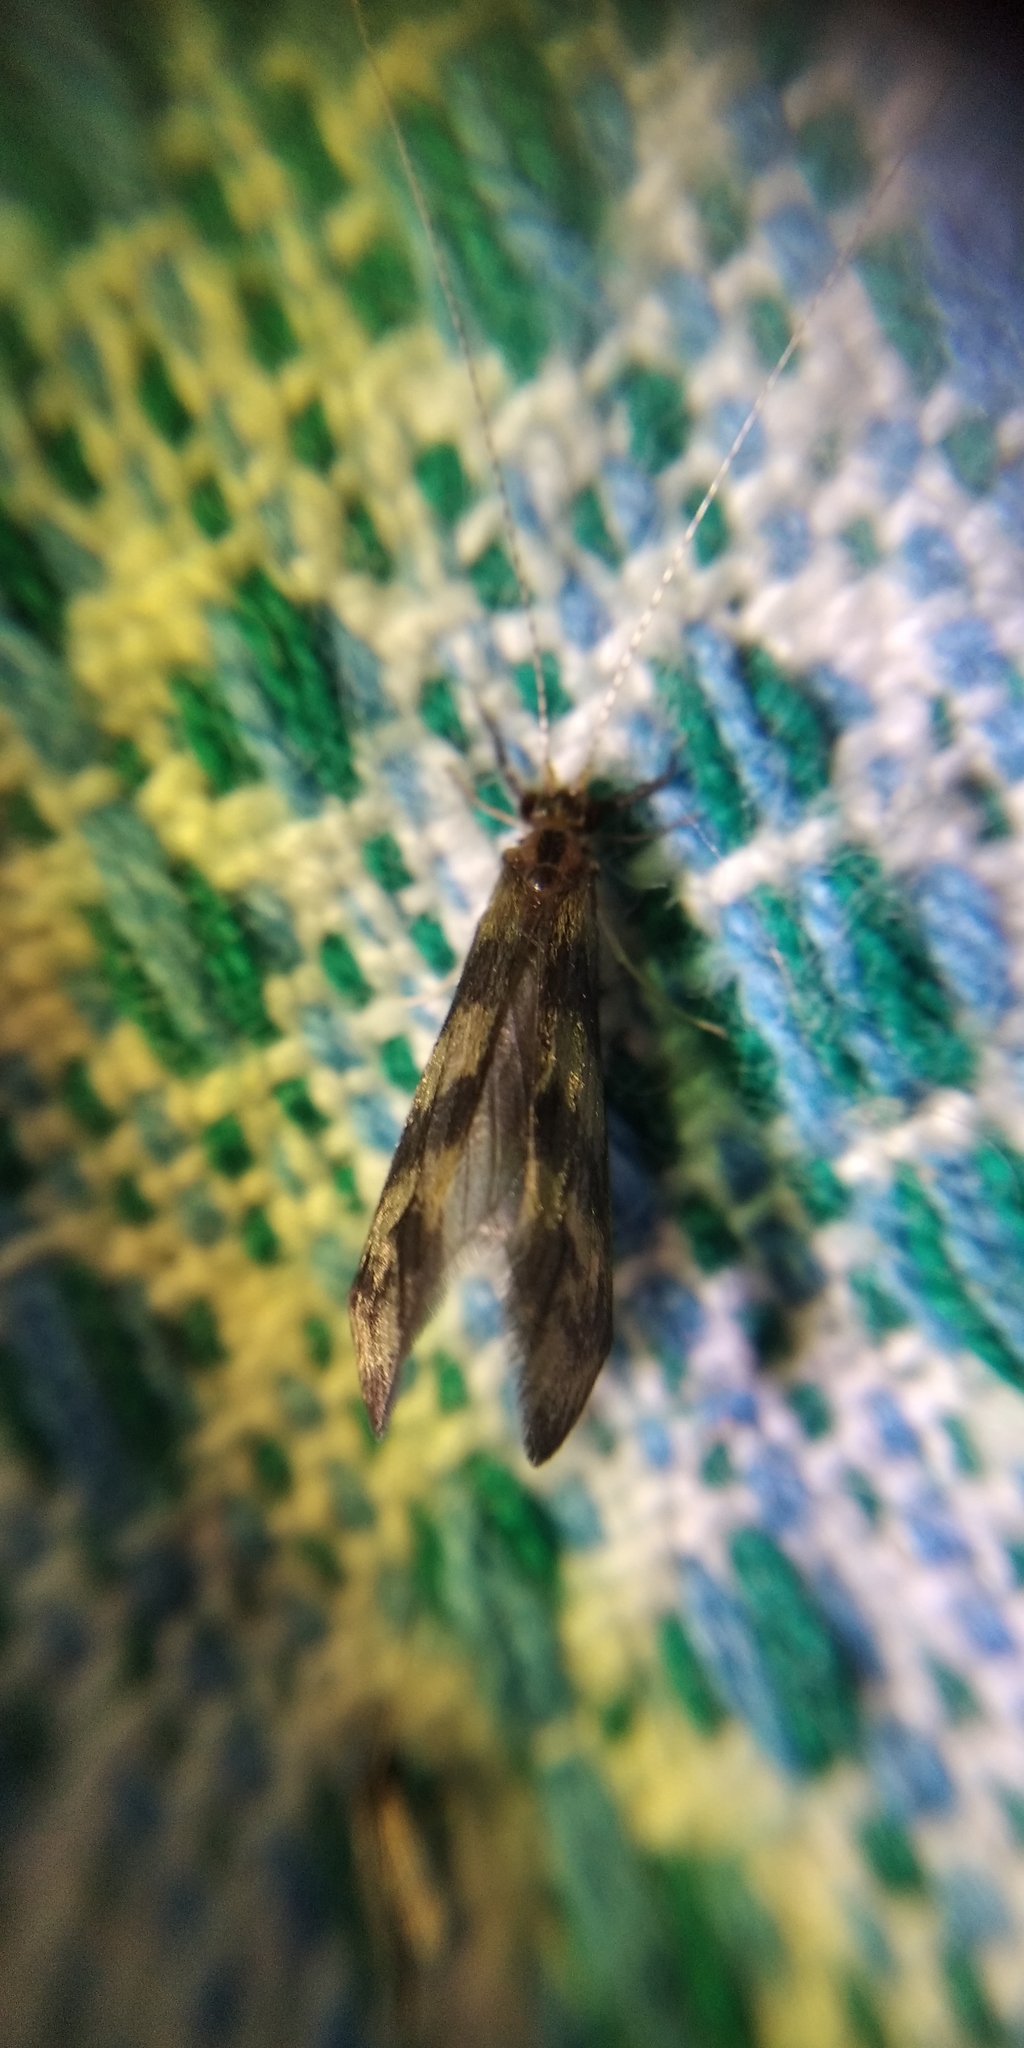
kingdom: Animalia
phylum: Arthropoda
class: Insecta
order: Trichoptera
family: Leptoceridae
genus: Mystacides
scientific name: Mystacides longicornis
